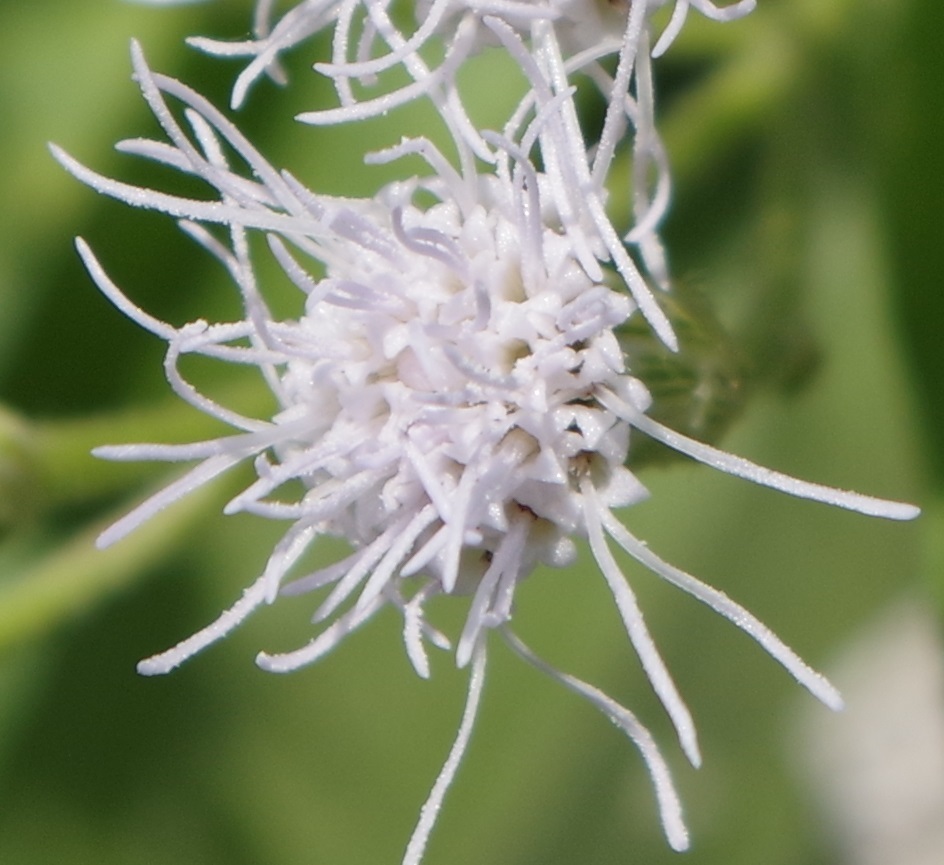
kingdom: Plantae
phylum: Tracheophyta
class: Magnoliopsida
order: Asterales
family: Asteraceae
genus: Chromolaena
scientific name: Chromolaena odorata
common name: Siamweed
